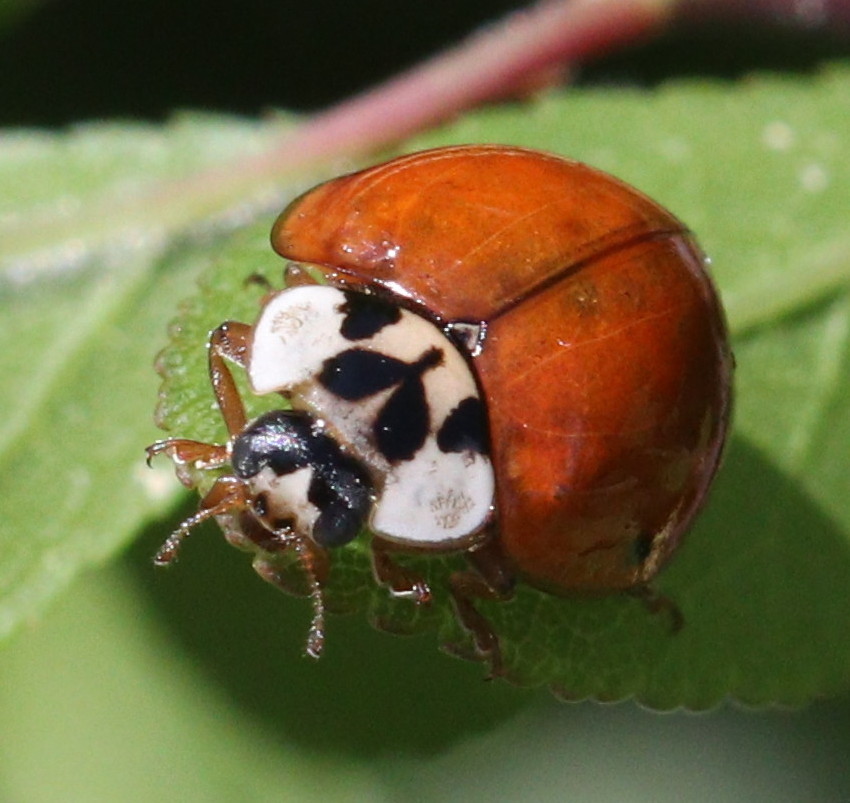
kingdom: Animalia
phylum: Arthropoda
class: Insecta
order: Coleoptera
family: Coccinellidae
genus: Harmonia
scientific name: Harmonia axyridis
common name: Harlequin ladybird
